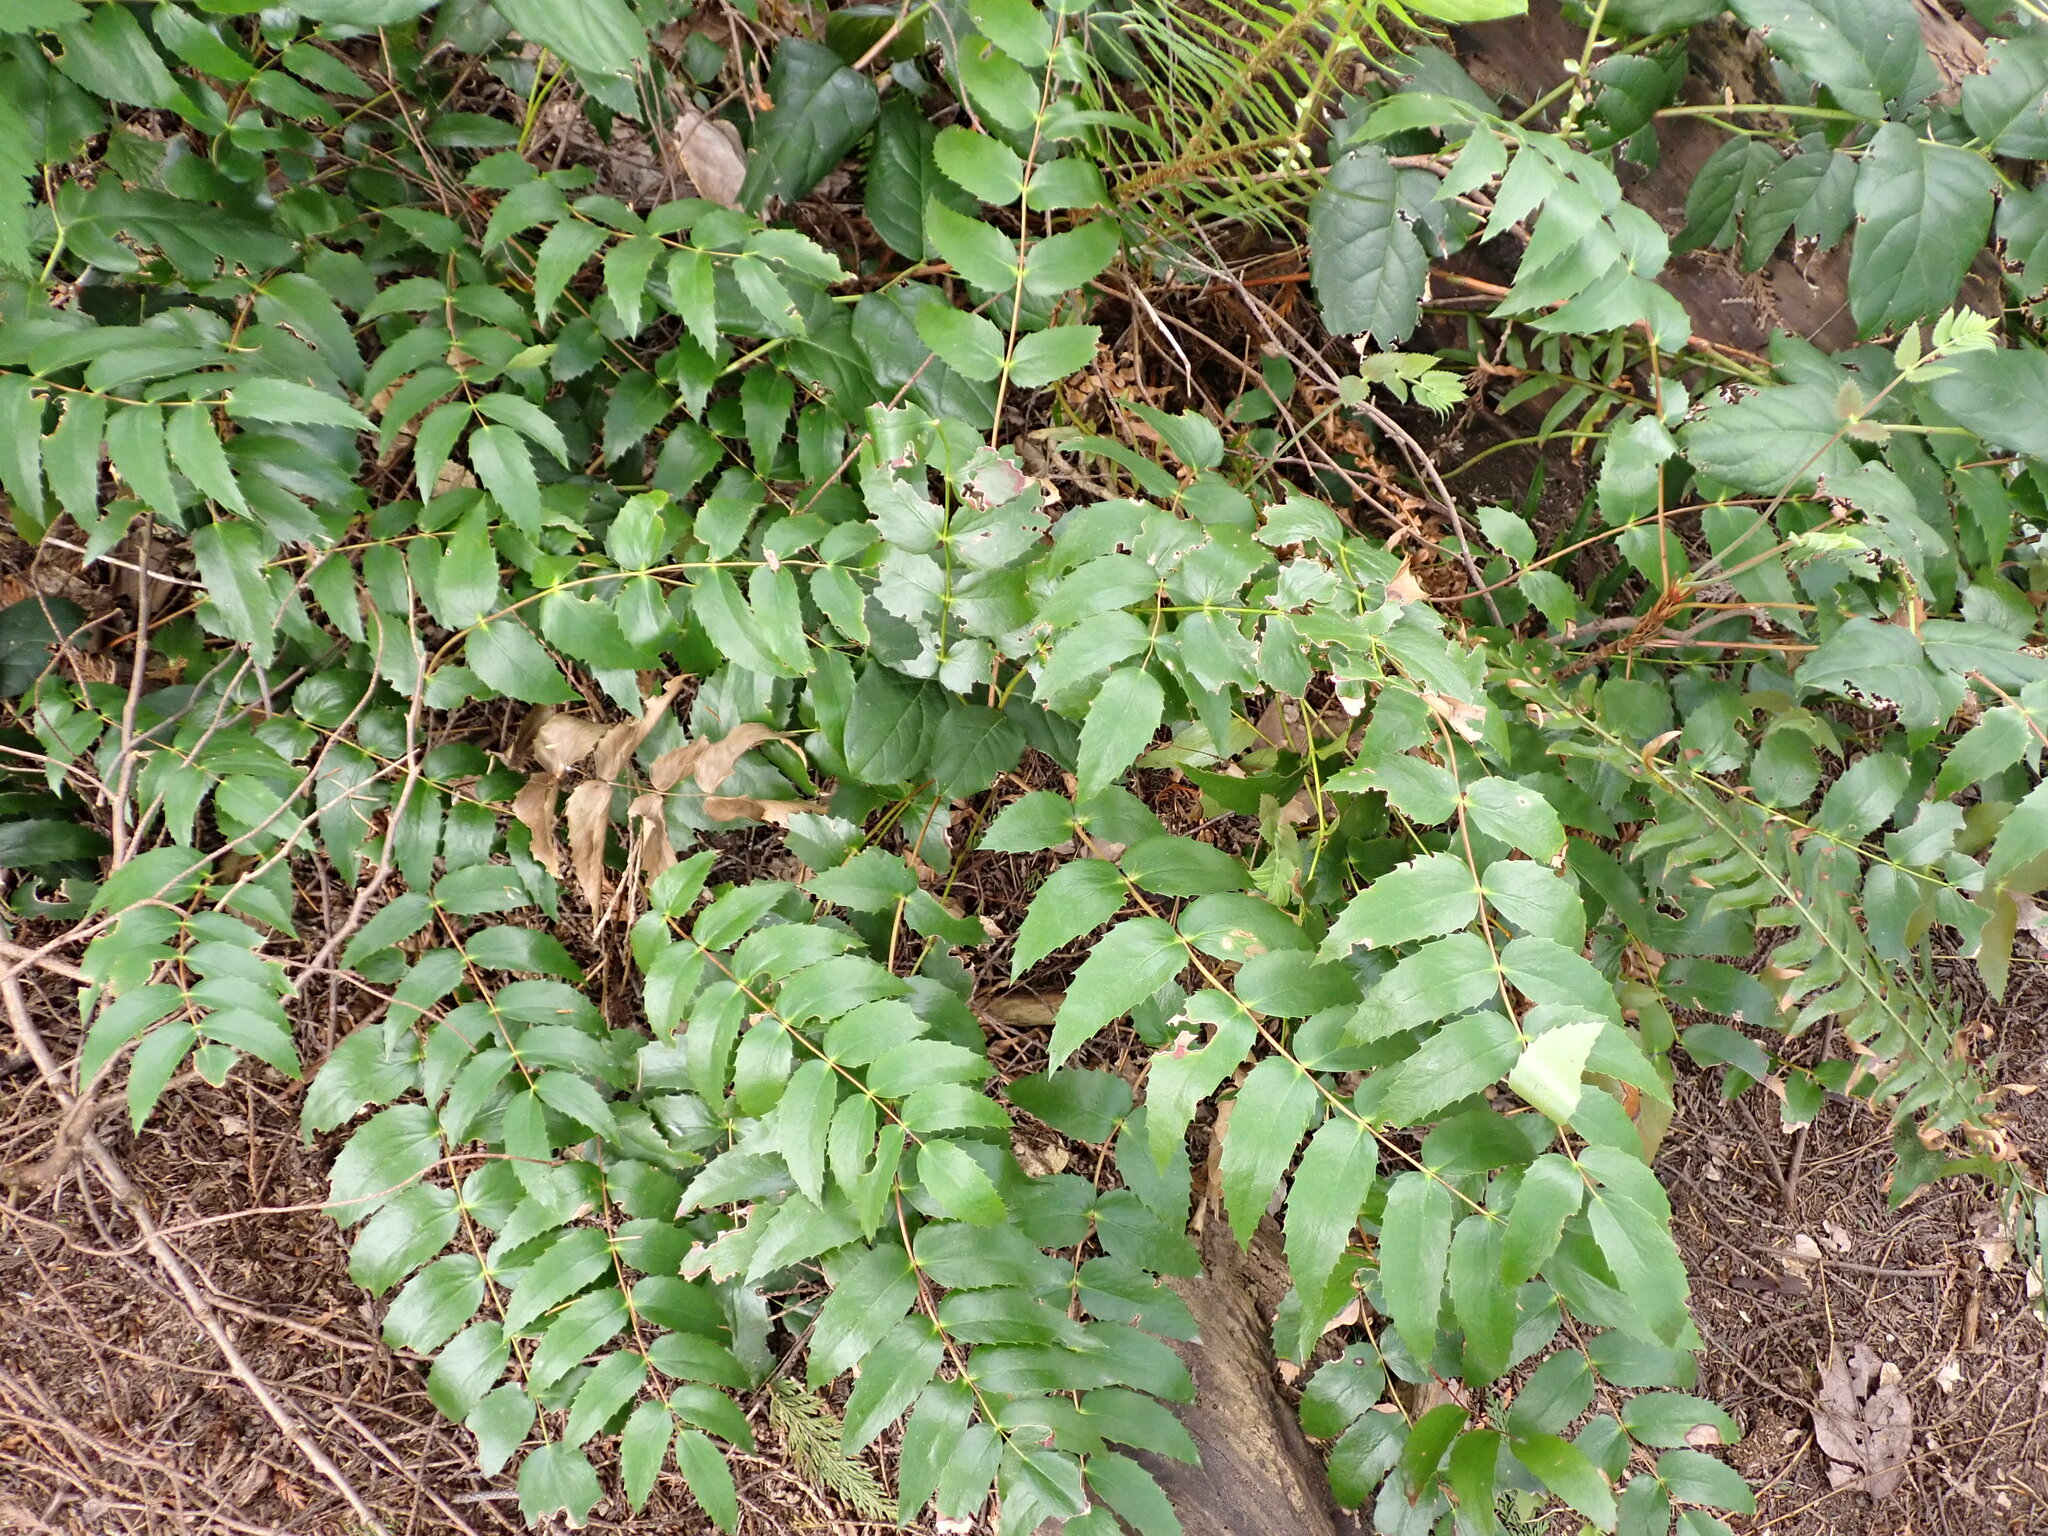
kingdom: Plantae
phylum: Tracheophyta
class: Magnoliopsida
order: Ranunculales
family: Berberidaceae
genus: Mahonia
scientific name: Mahonia nervosa
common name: Cascade oregon-grape
